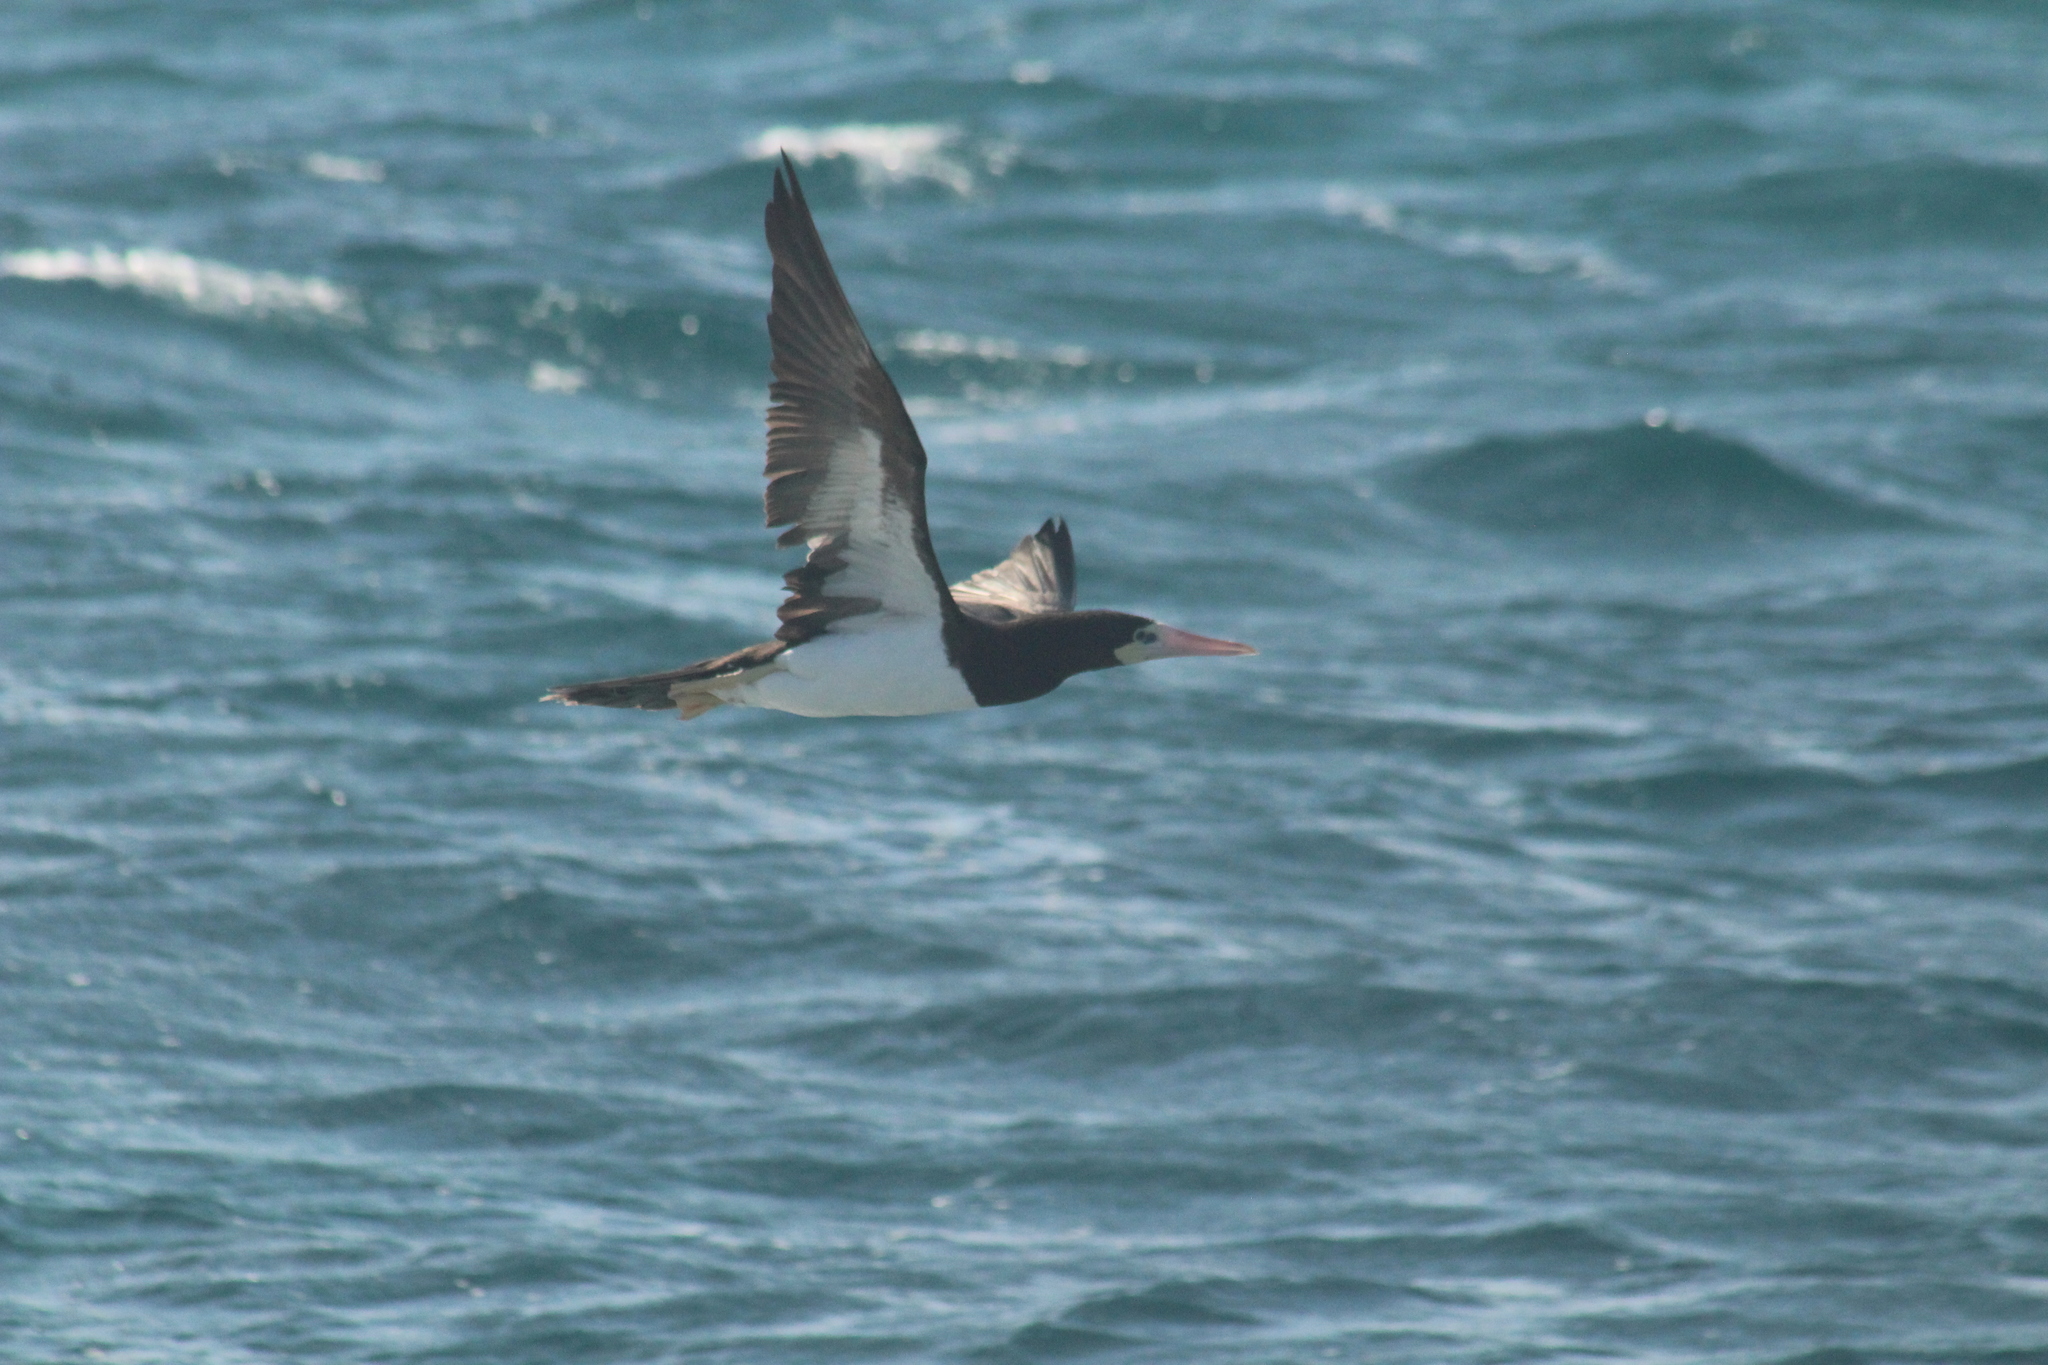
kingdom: Animalia
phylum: Chordata
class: Aves
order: Suliformes
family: Sulidae
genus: Sula
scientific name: Sula leucogaster
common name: Brown booby
